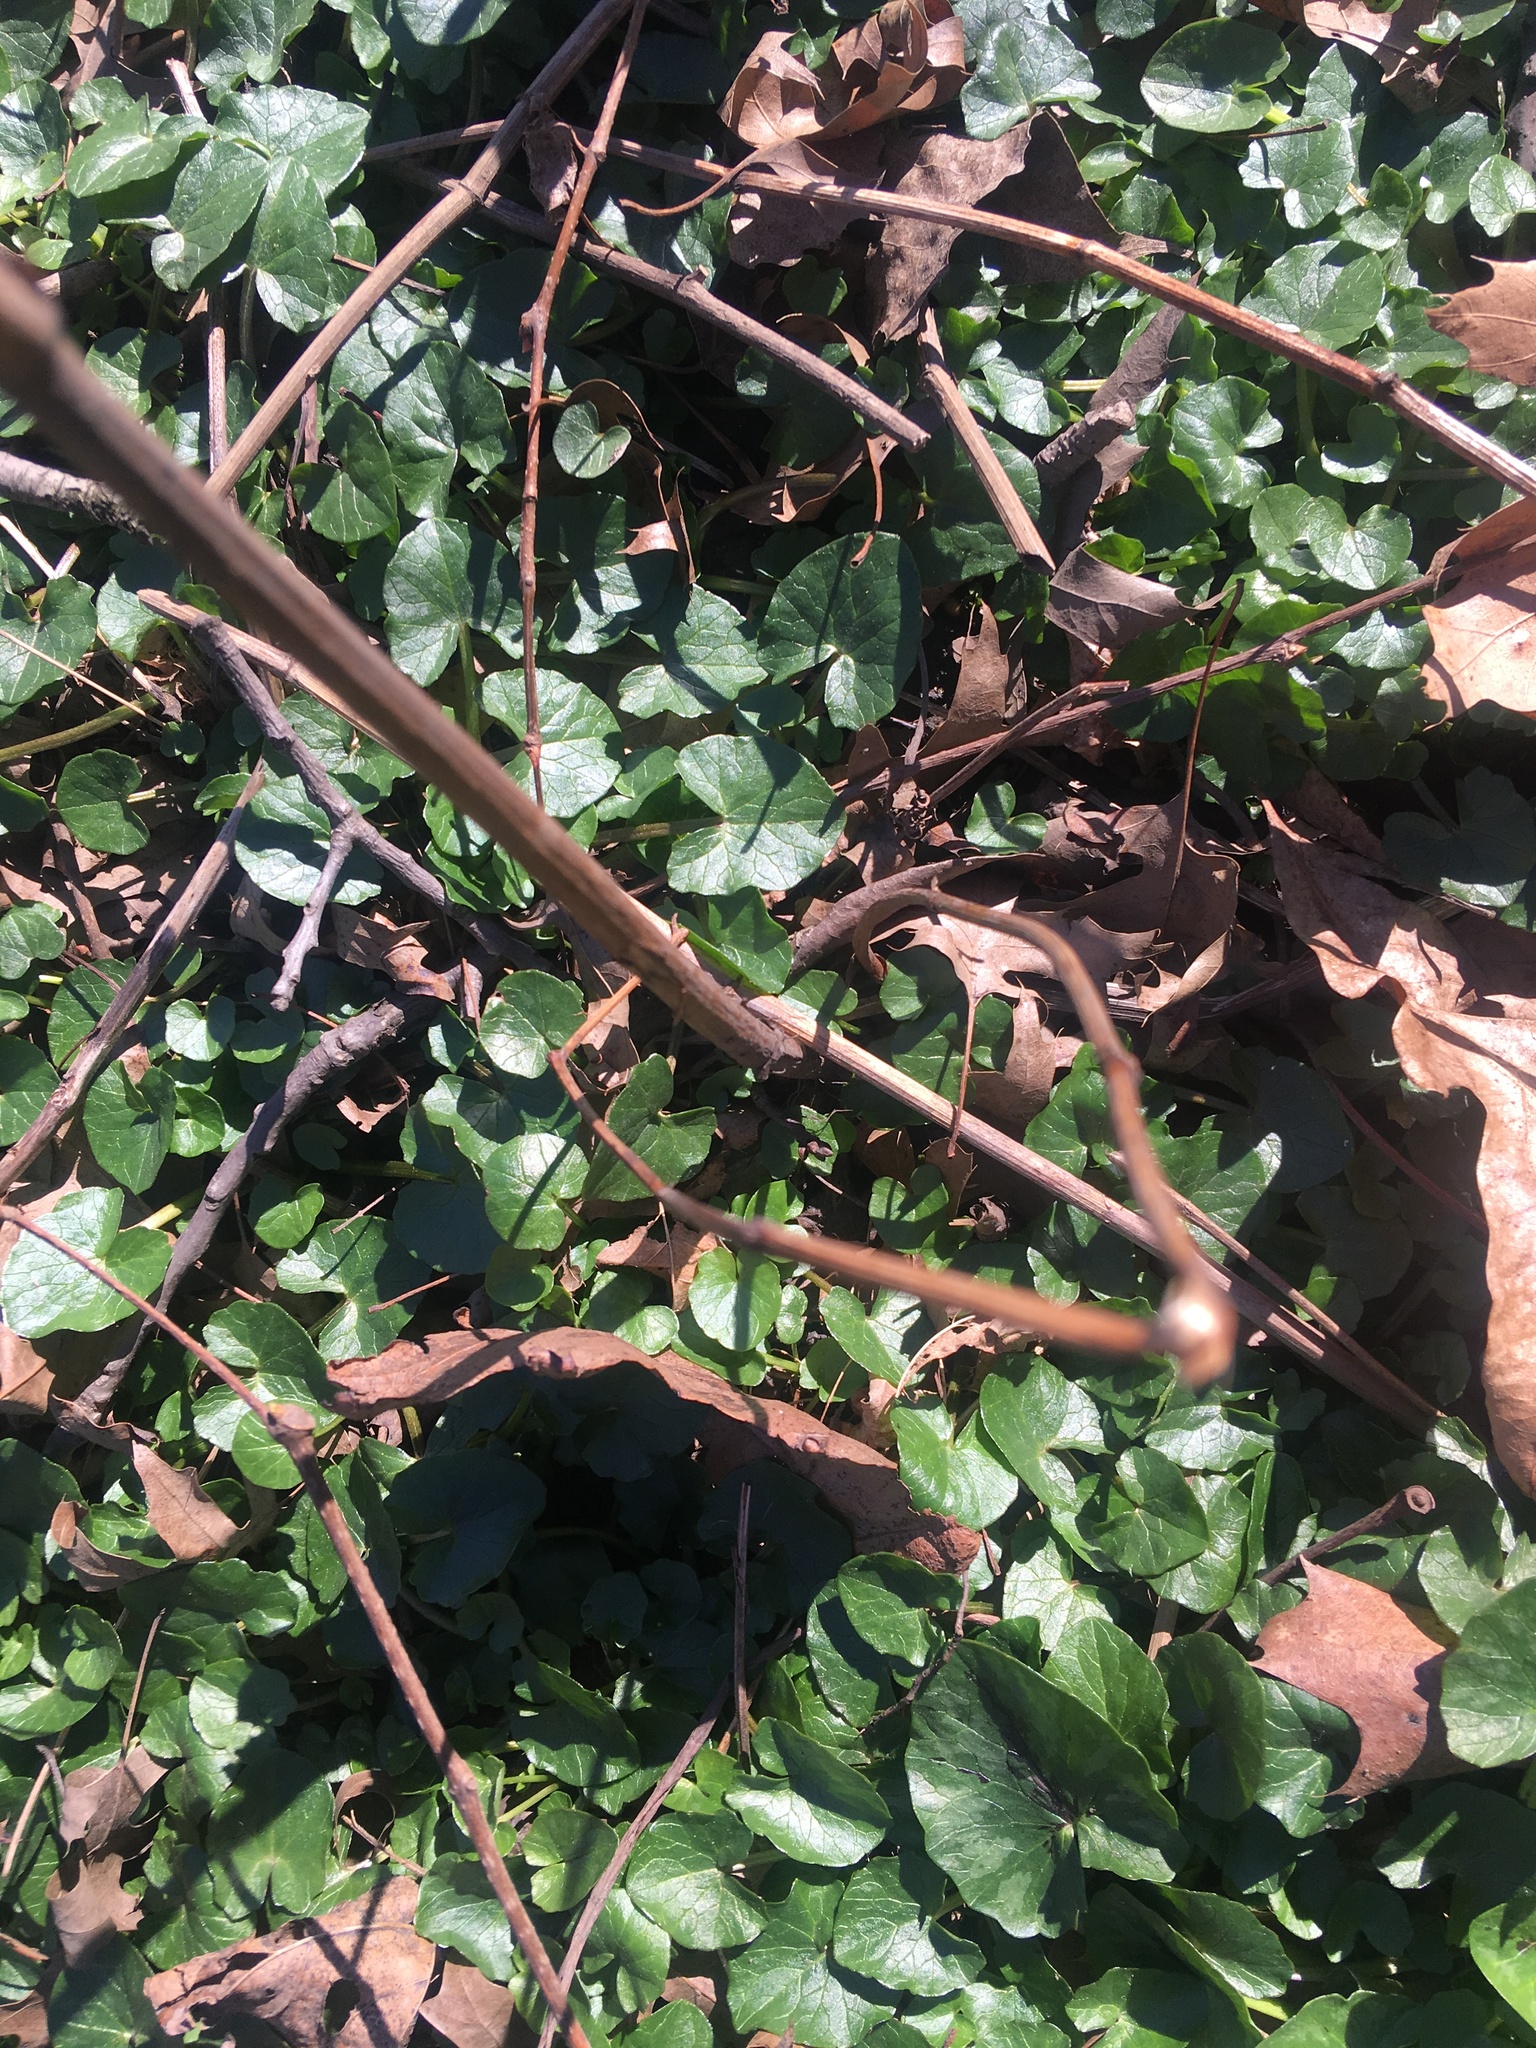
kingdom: Plantae
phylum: Tracheophyta
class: Magnoliopsida
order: Ranunculales
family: Ranunculaceae
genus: Ficaria
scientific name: Ficaria verna
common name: Lesser celandine
